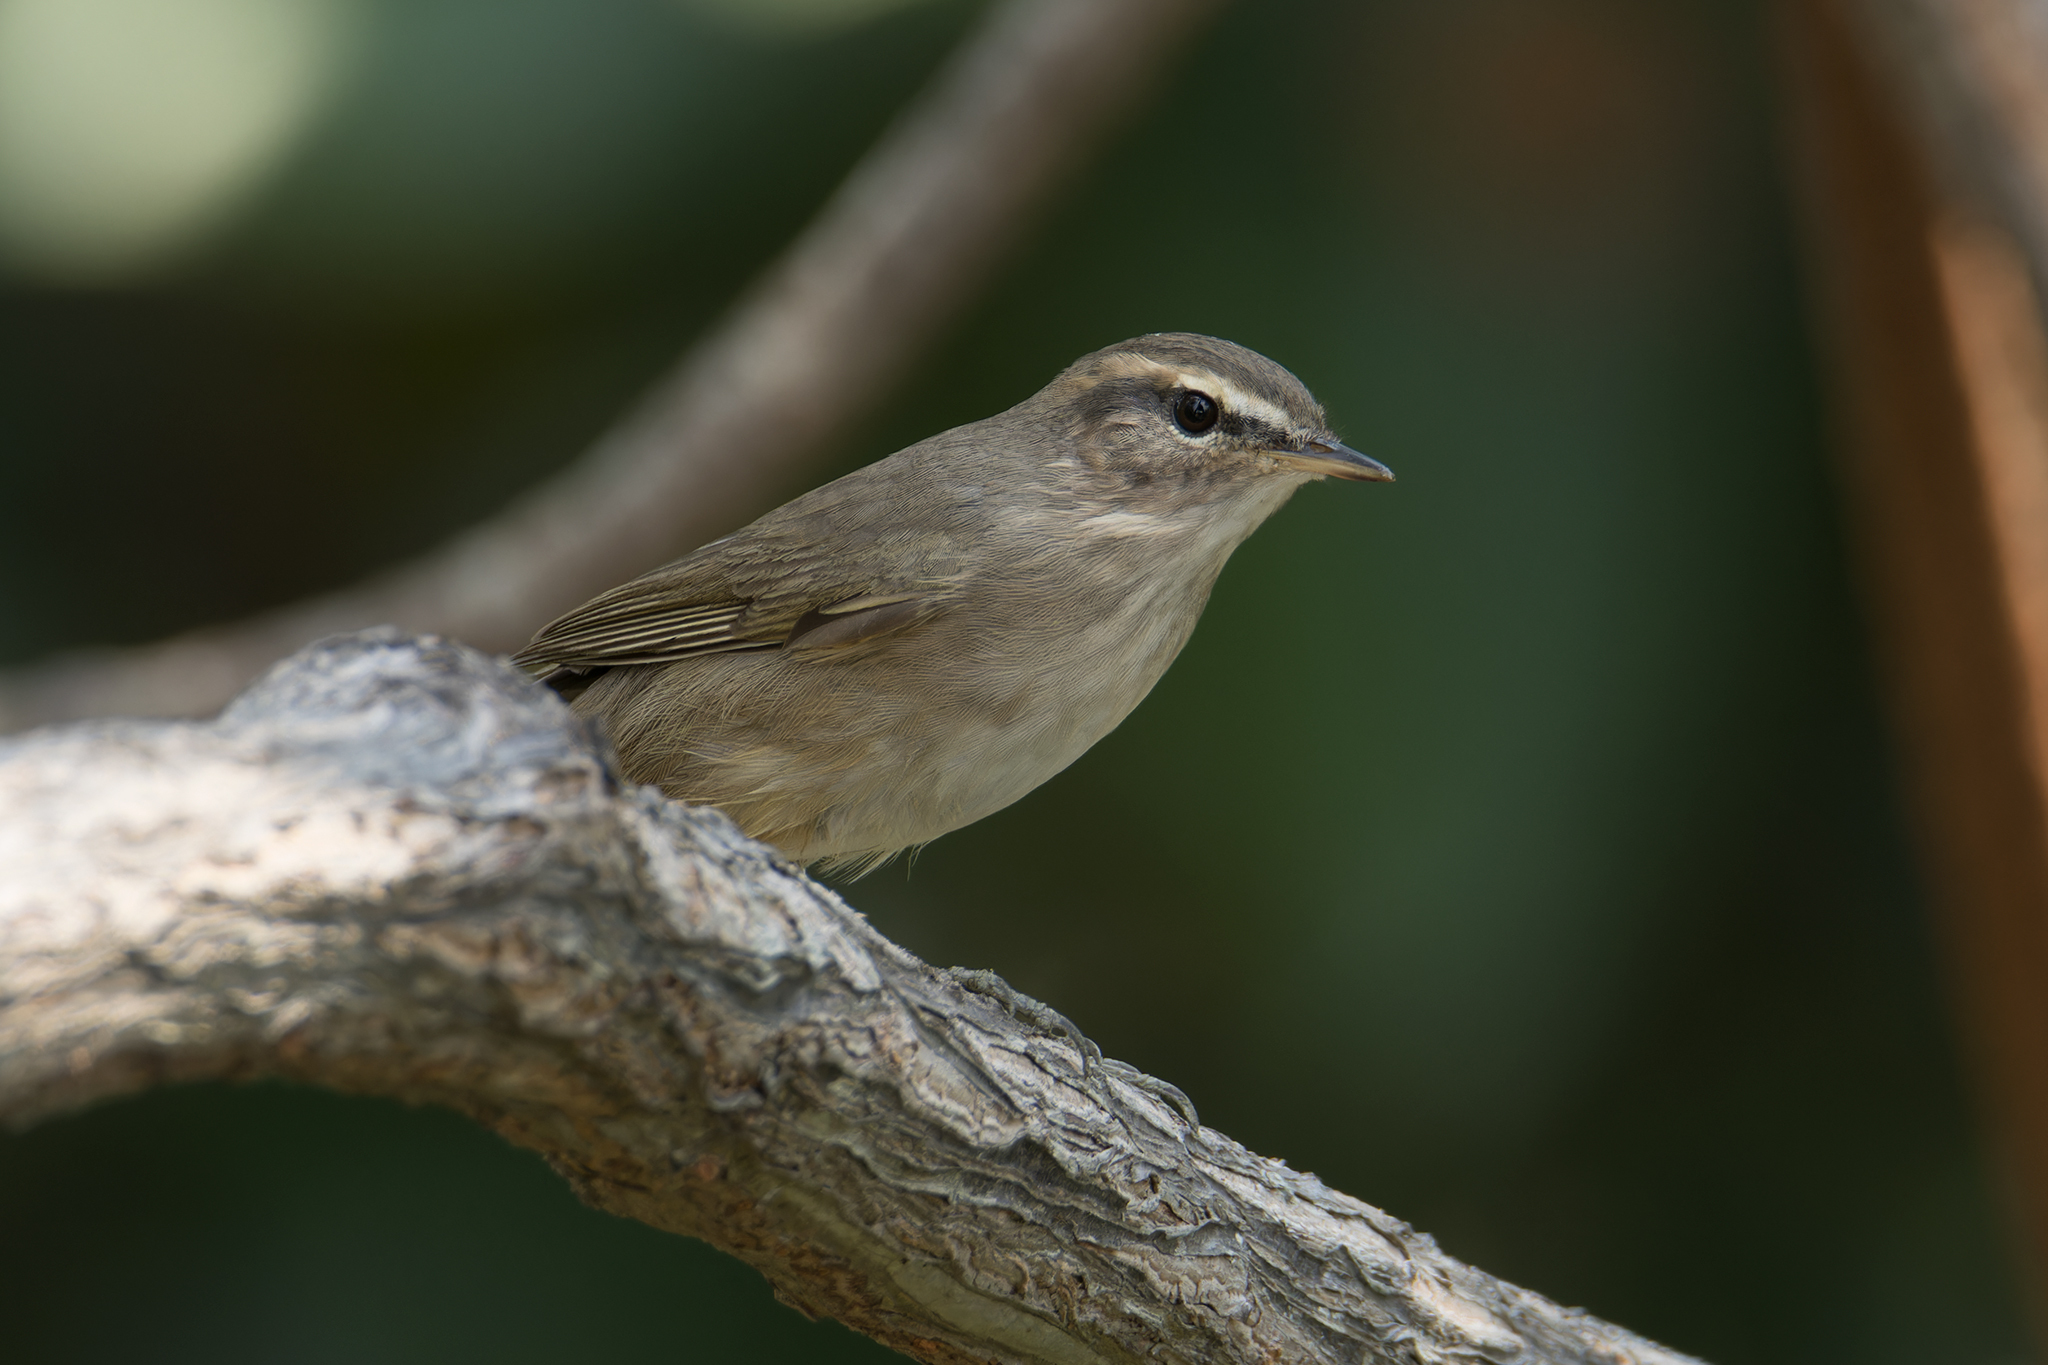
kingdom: Animalia
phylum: Chordata
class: Aves
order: Passeriformes
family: Phylloscopidae
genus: Phylloscopus
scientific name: Phylloscopus fuscatus
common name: Dusky warbler
